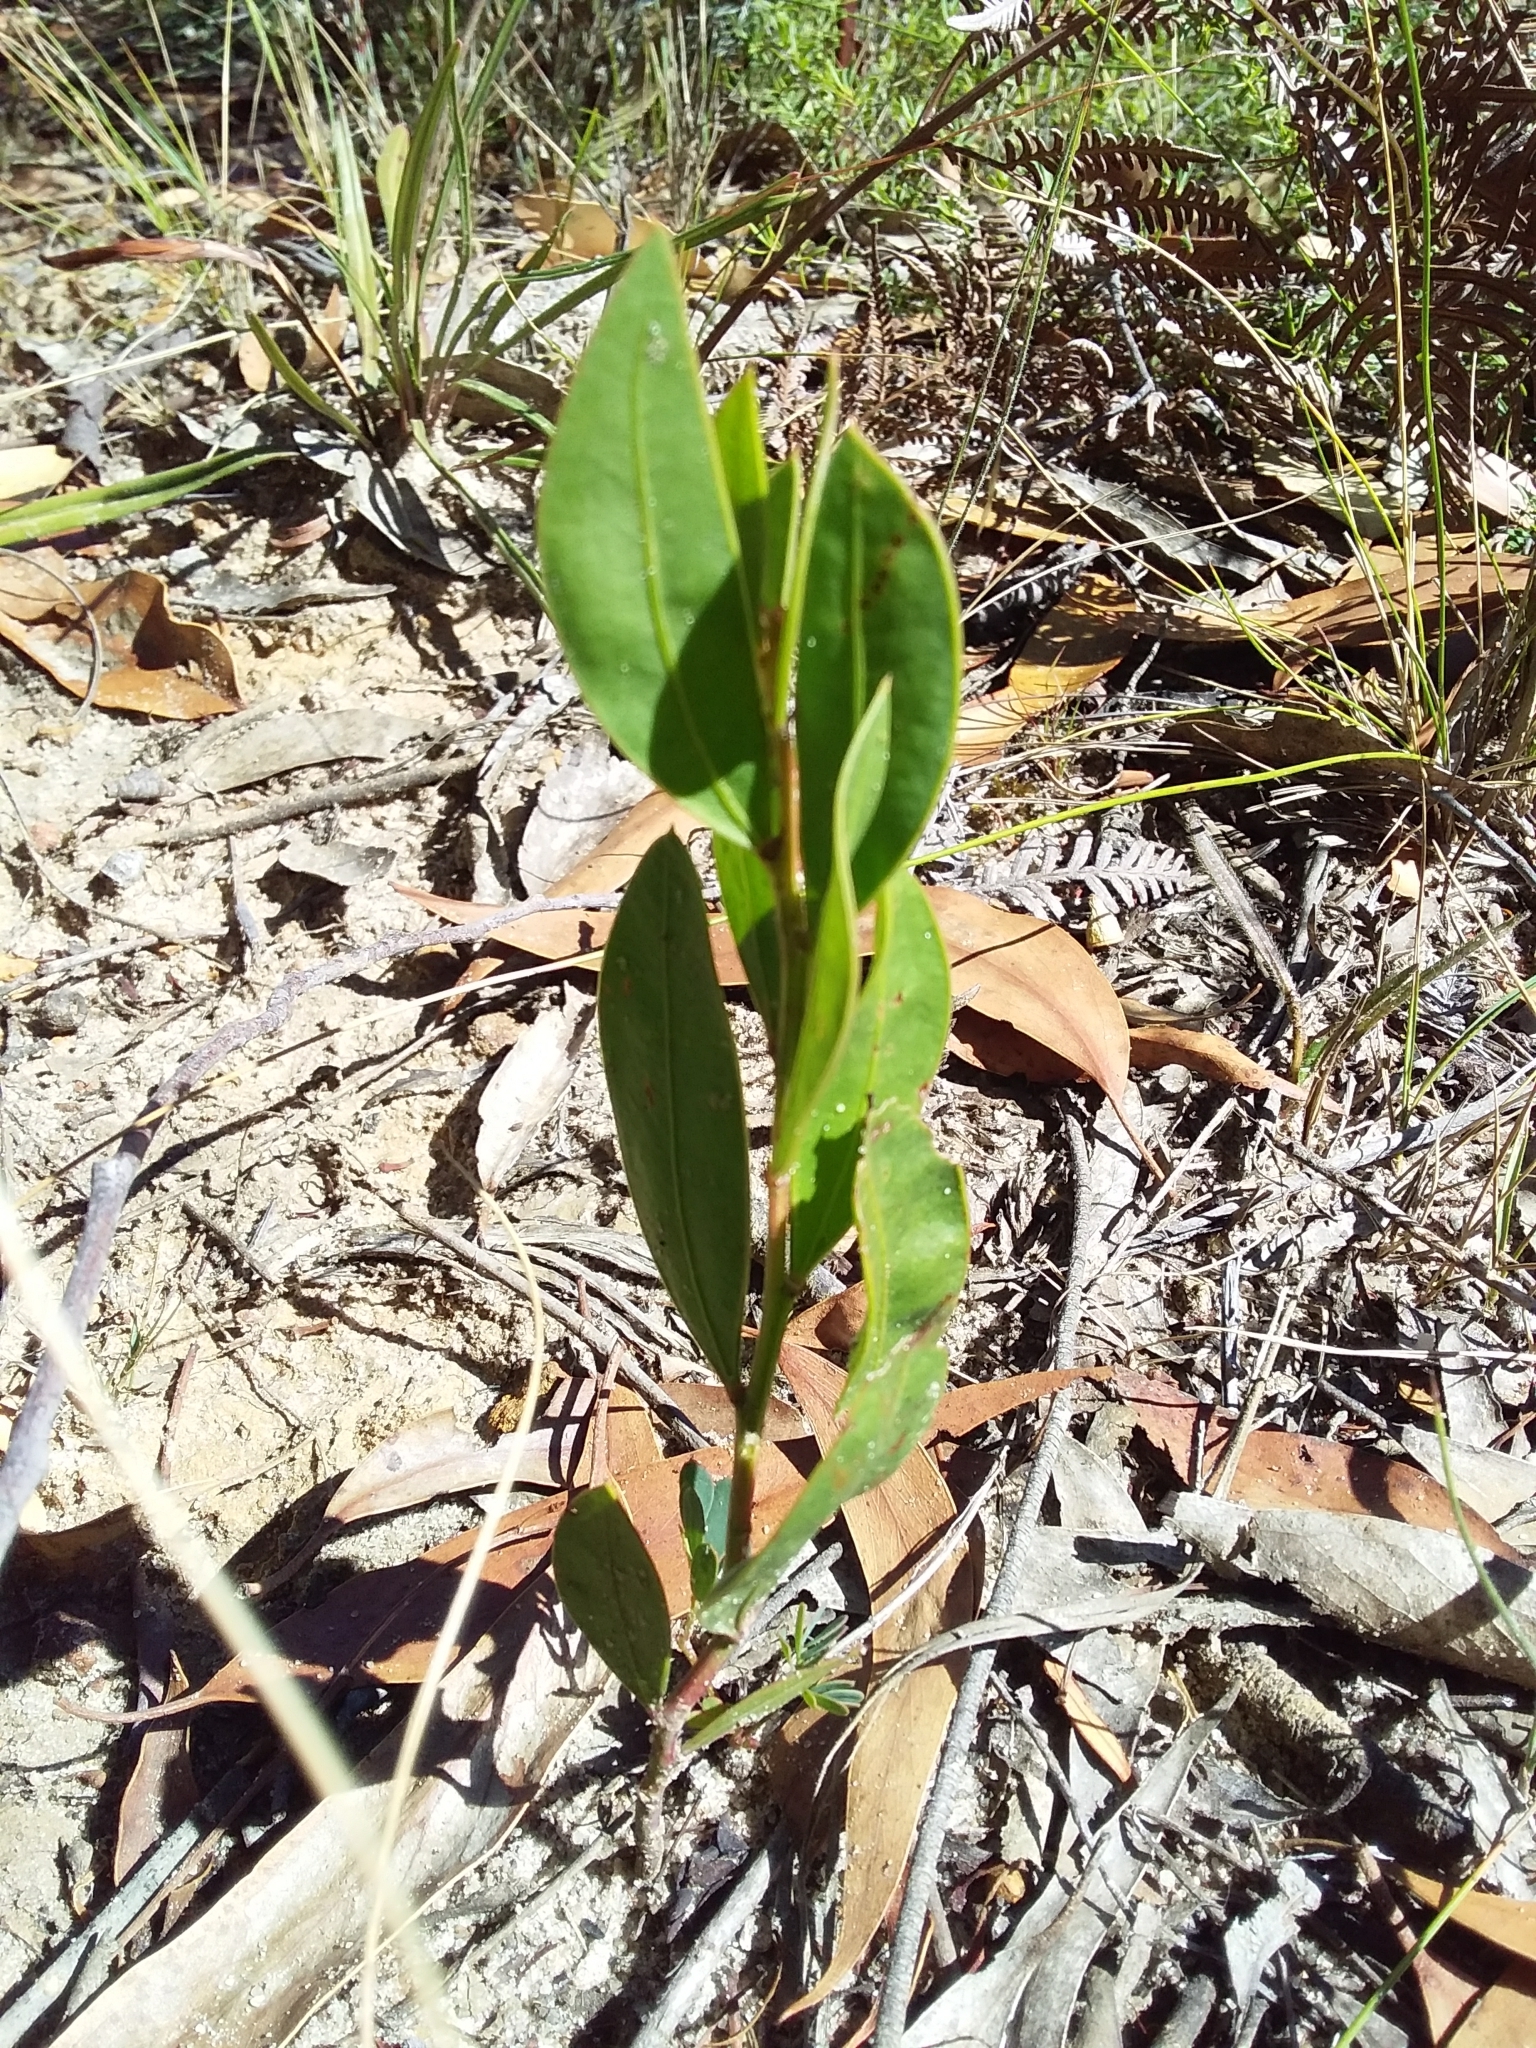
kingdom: Plantae
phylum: Tracheophyta
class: Magnoliopsida
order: Fabales
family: Fabaceae
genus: Acacia
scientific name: Acacia myrtifolia
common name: Myrtle wattle
